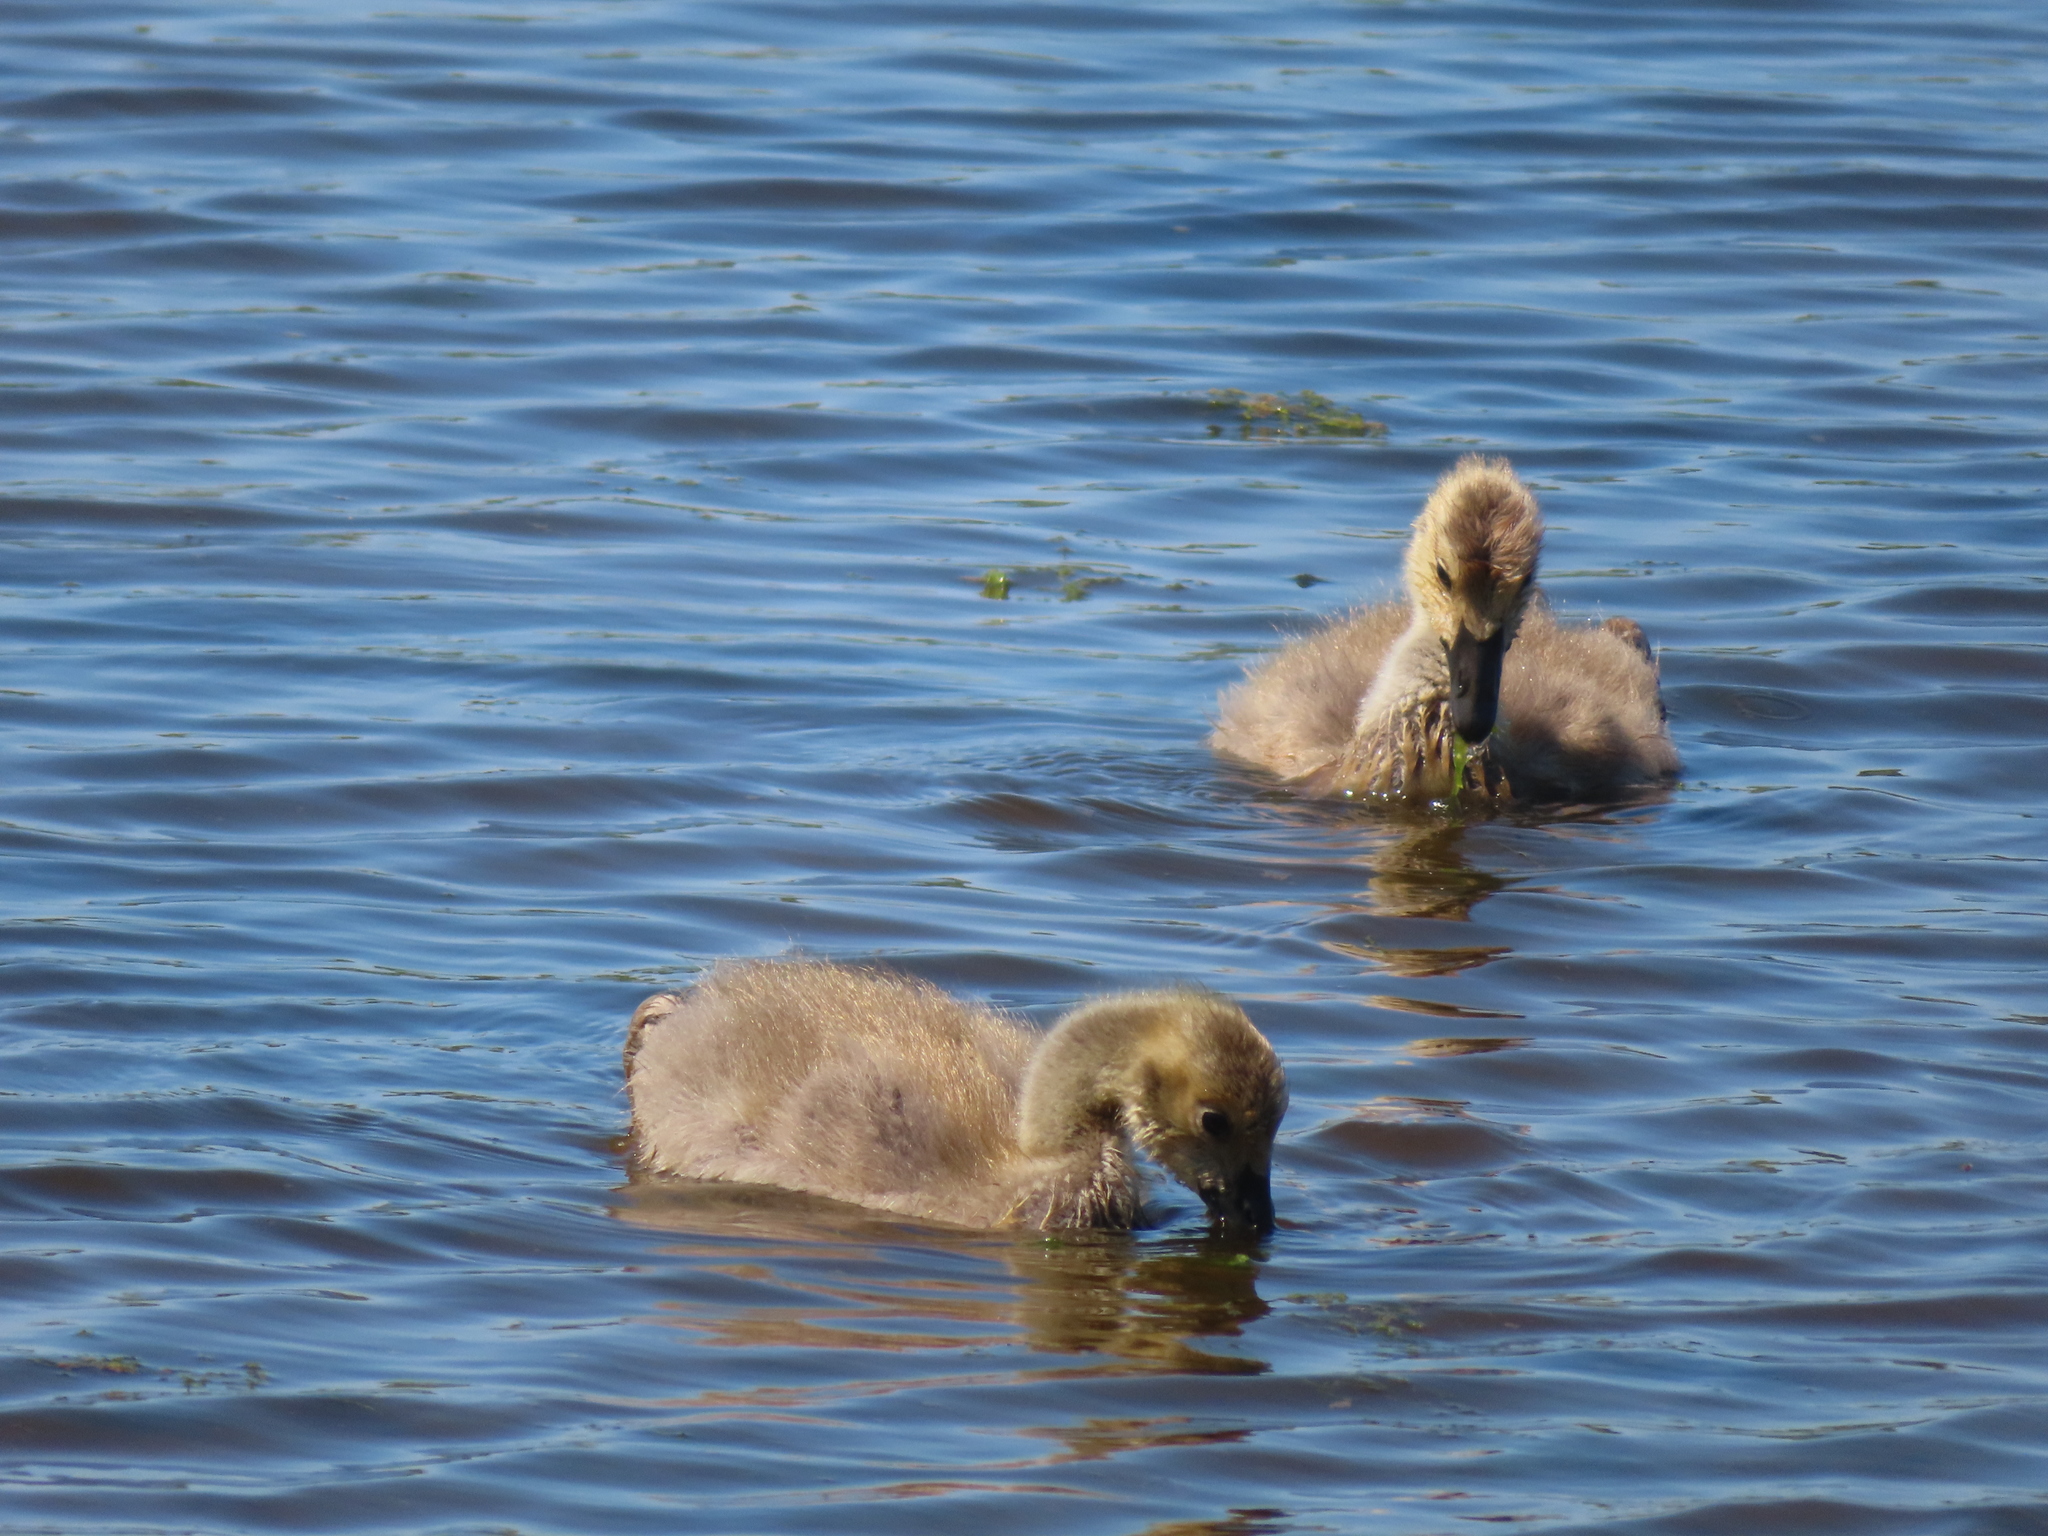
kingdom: Animalia
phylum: Chordata
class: Aves
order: Anseriformes
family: Anatidae
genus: Branta
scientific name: Branta canadensis
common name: Canada goose
